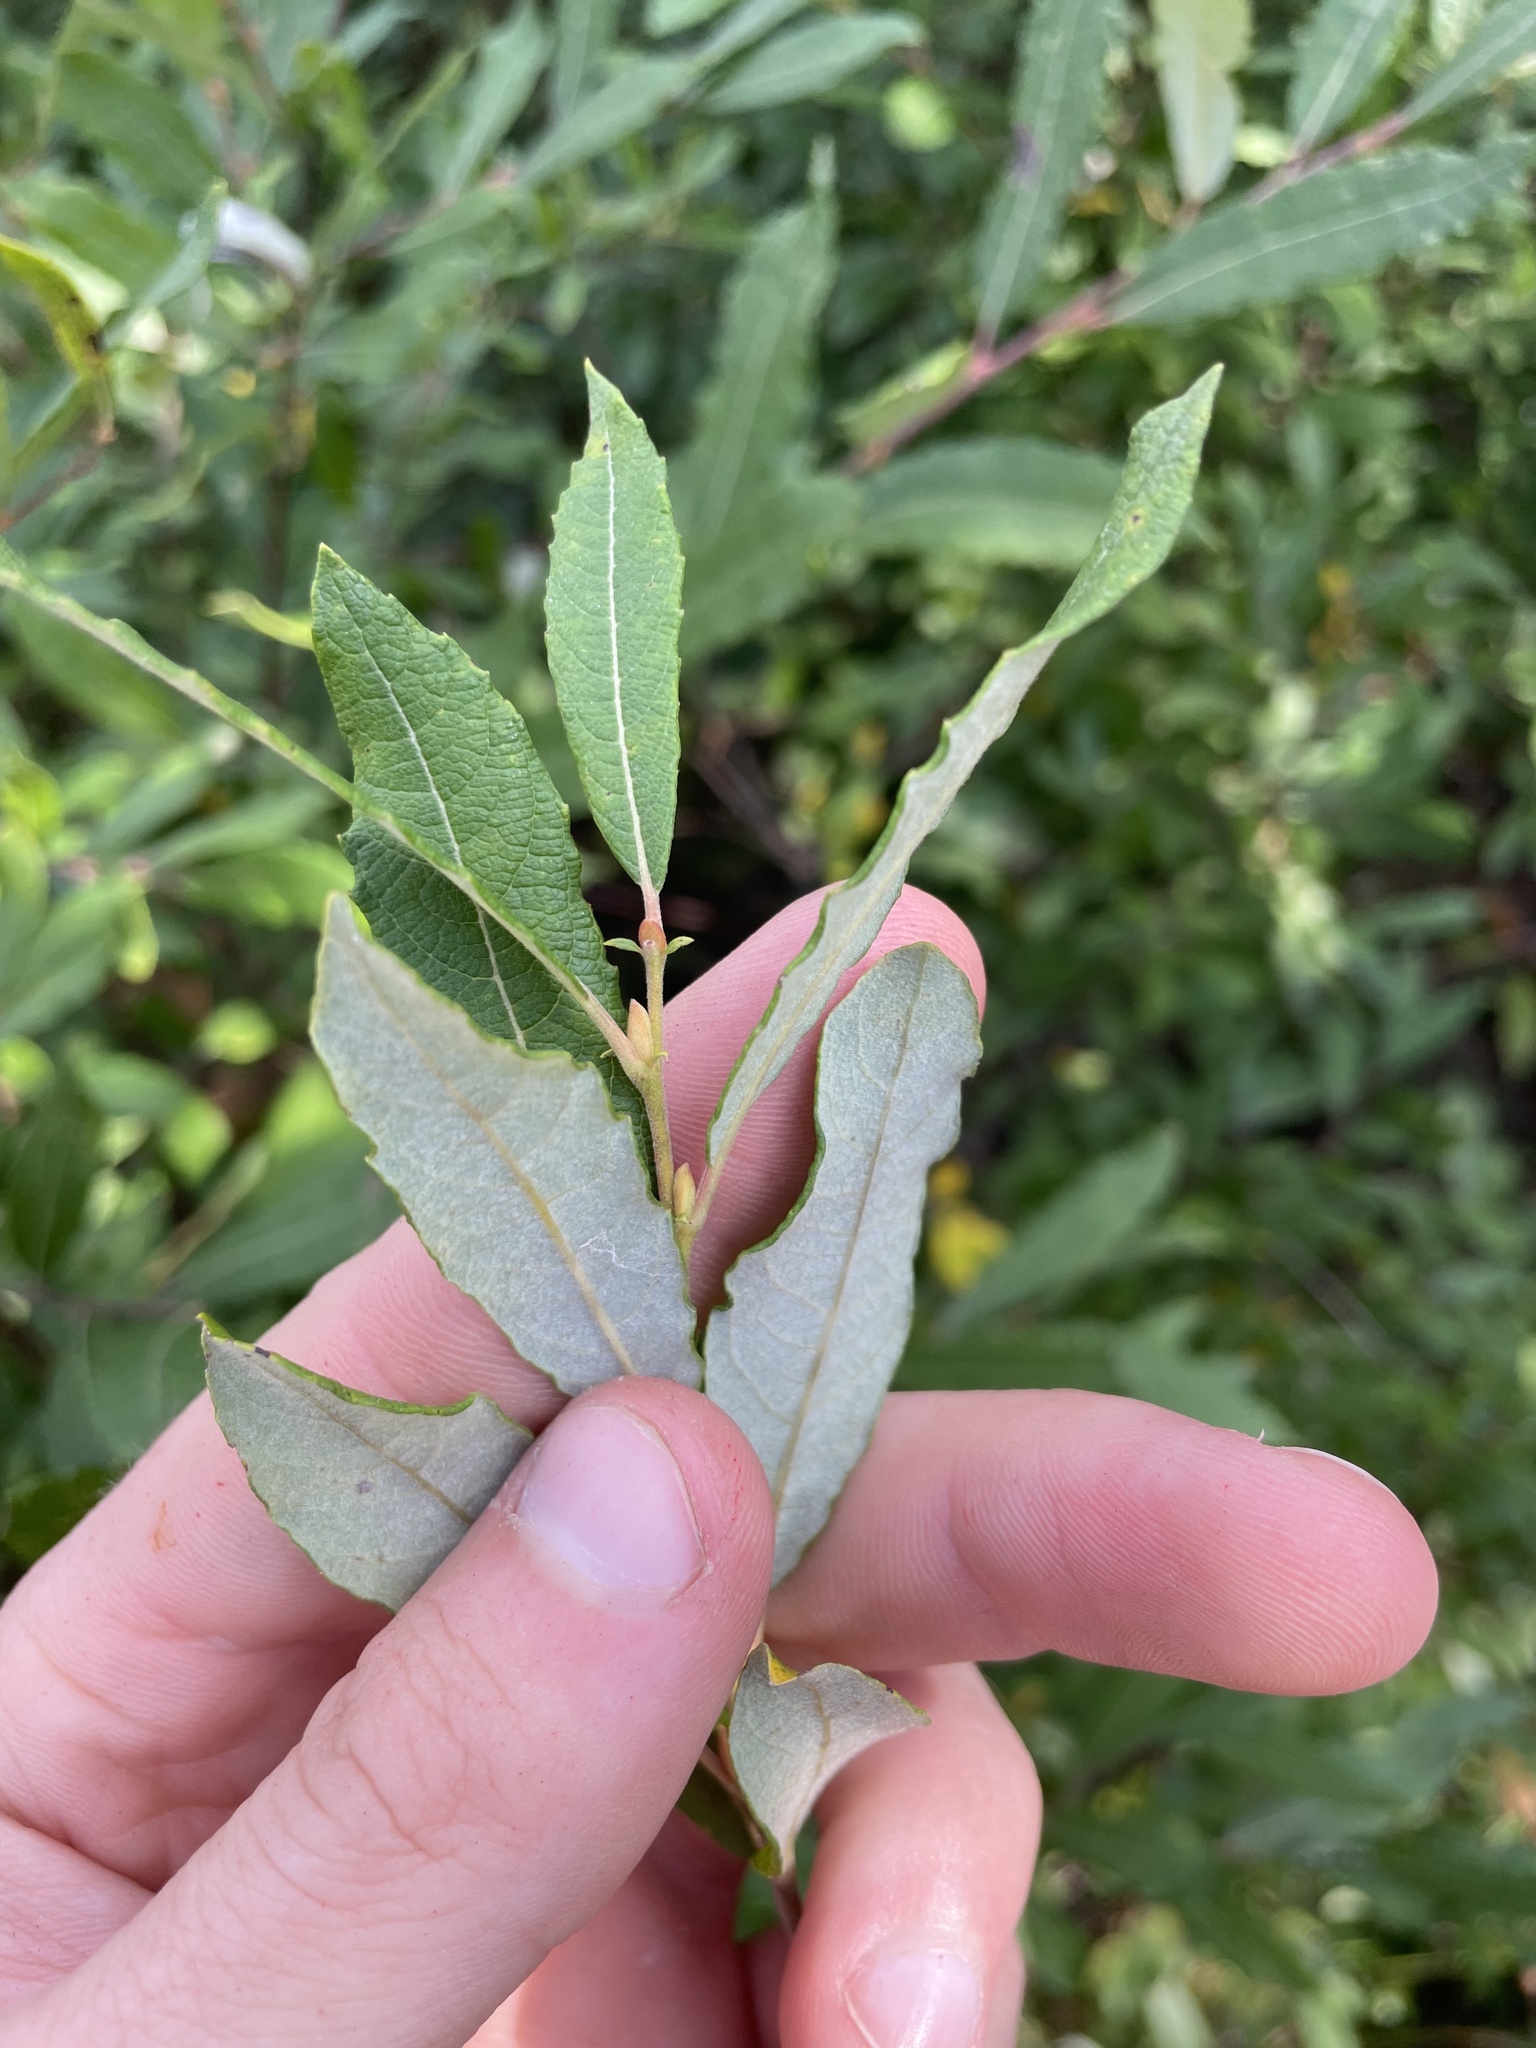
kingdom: Plantae
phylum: Tracheophyta
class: Magnoliopsida
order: Malpighiales
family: Salicaceae
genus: Salix
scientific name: Salix humilis
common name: Prairie willow
